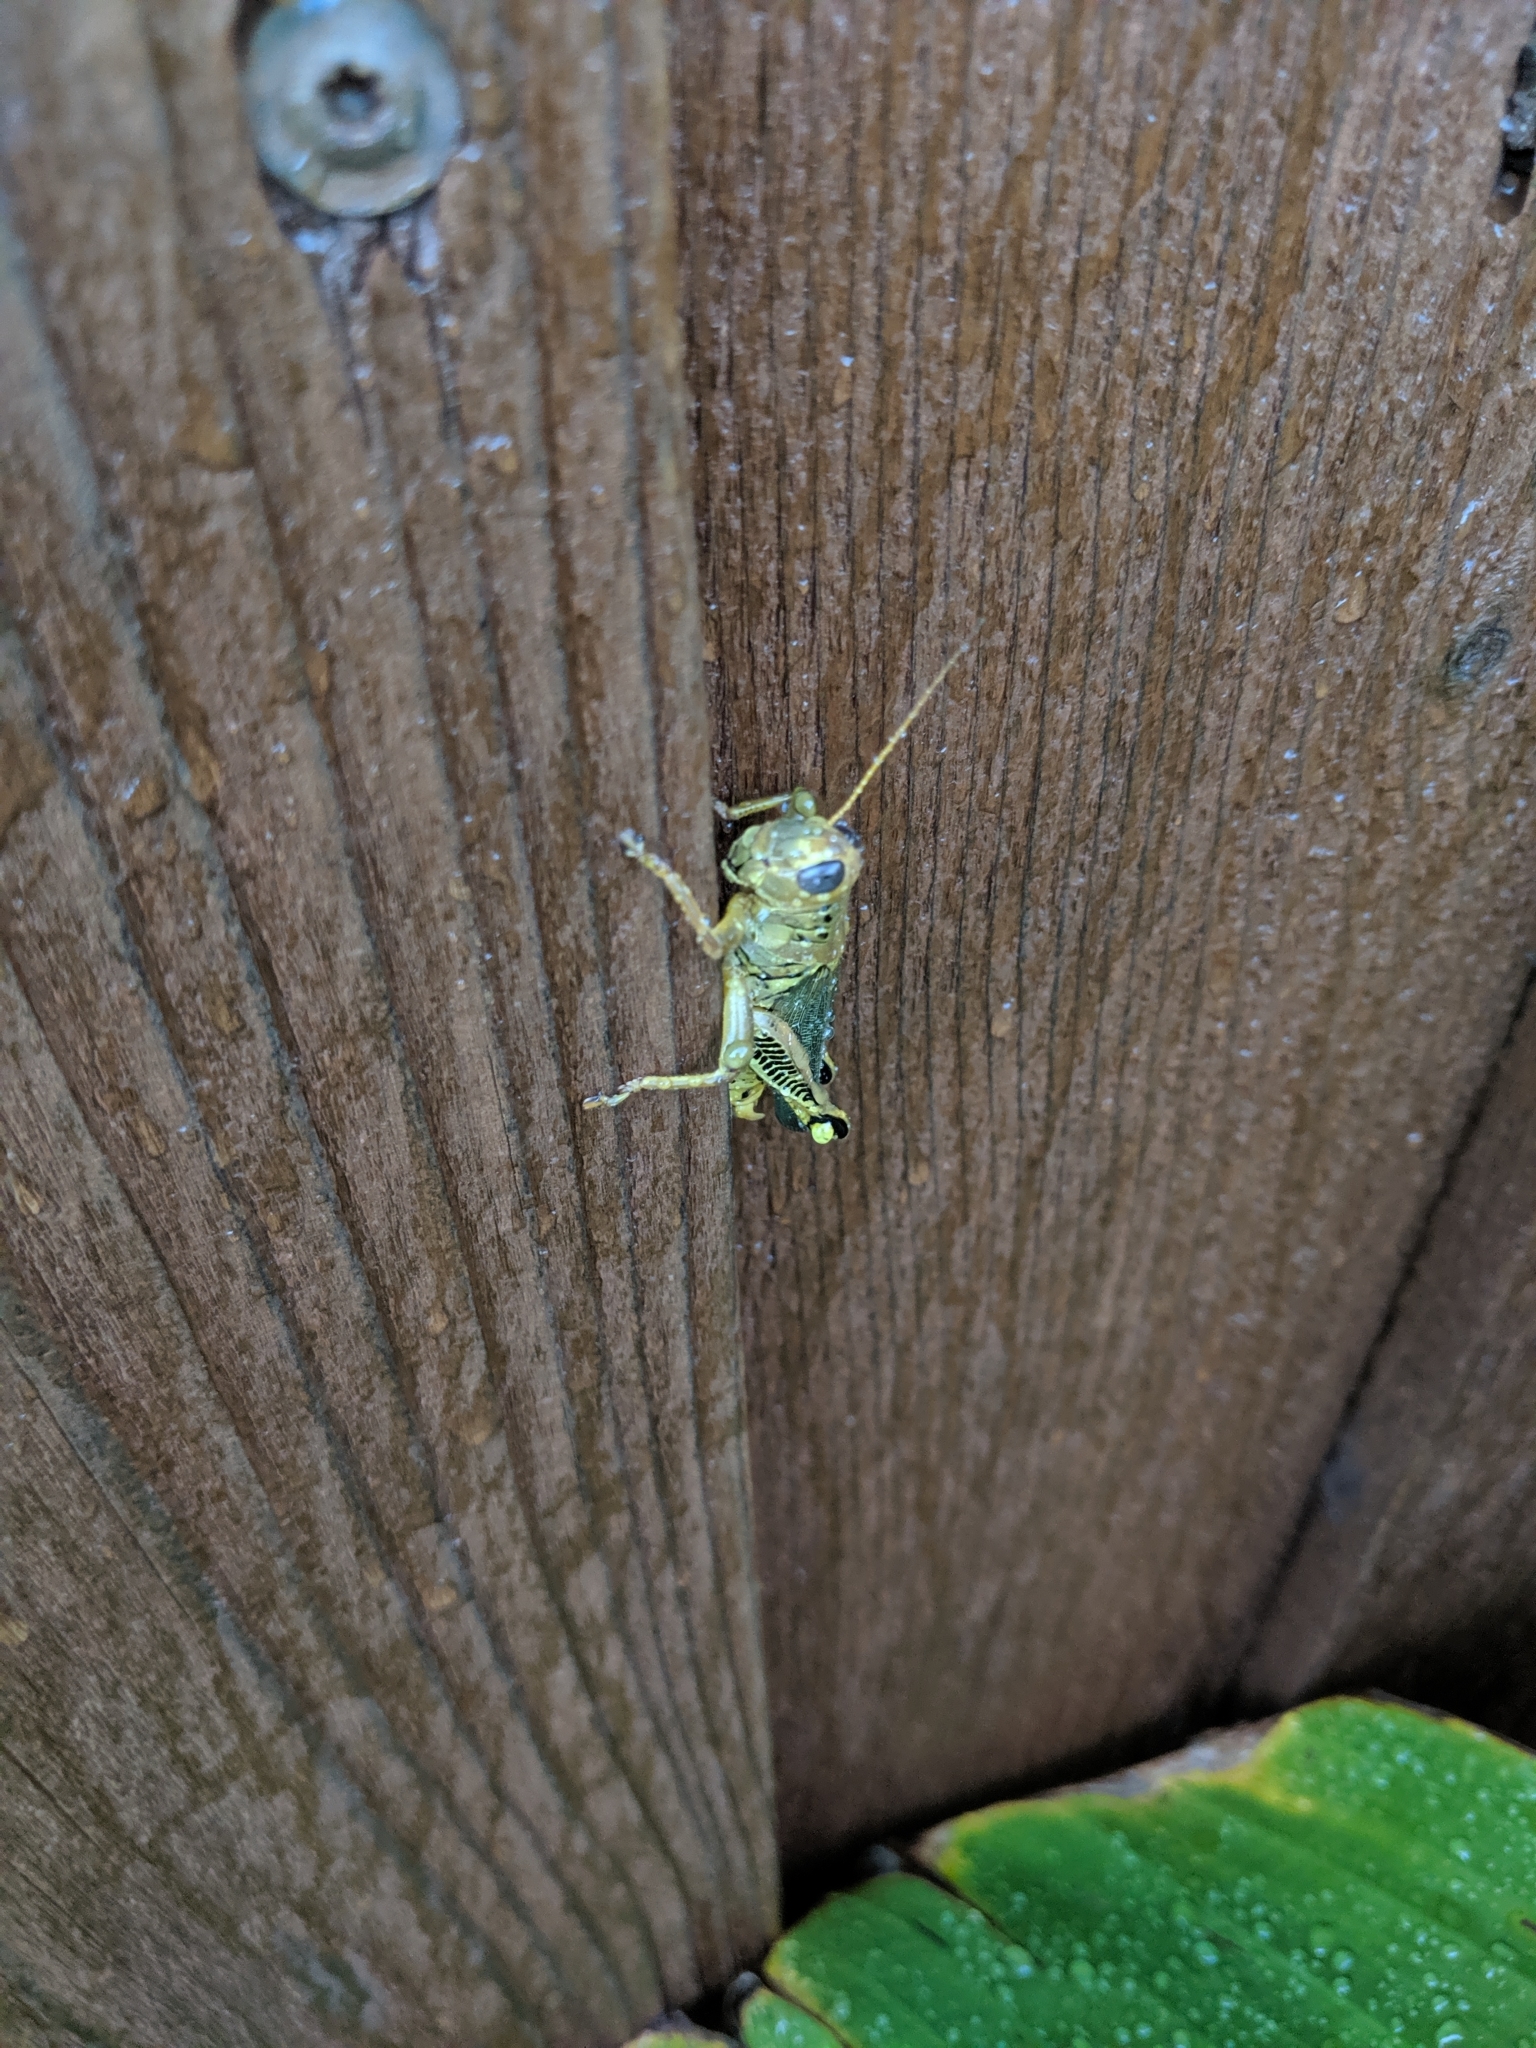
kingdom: Animalia
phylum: Arthropoda
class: Insecta
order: Orthoptera
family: Acrididae
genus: Melanoplus
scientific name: Melanoplus differentialis
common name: Differential grasshopper
